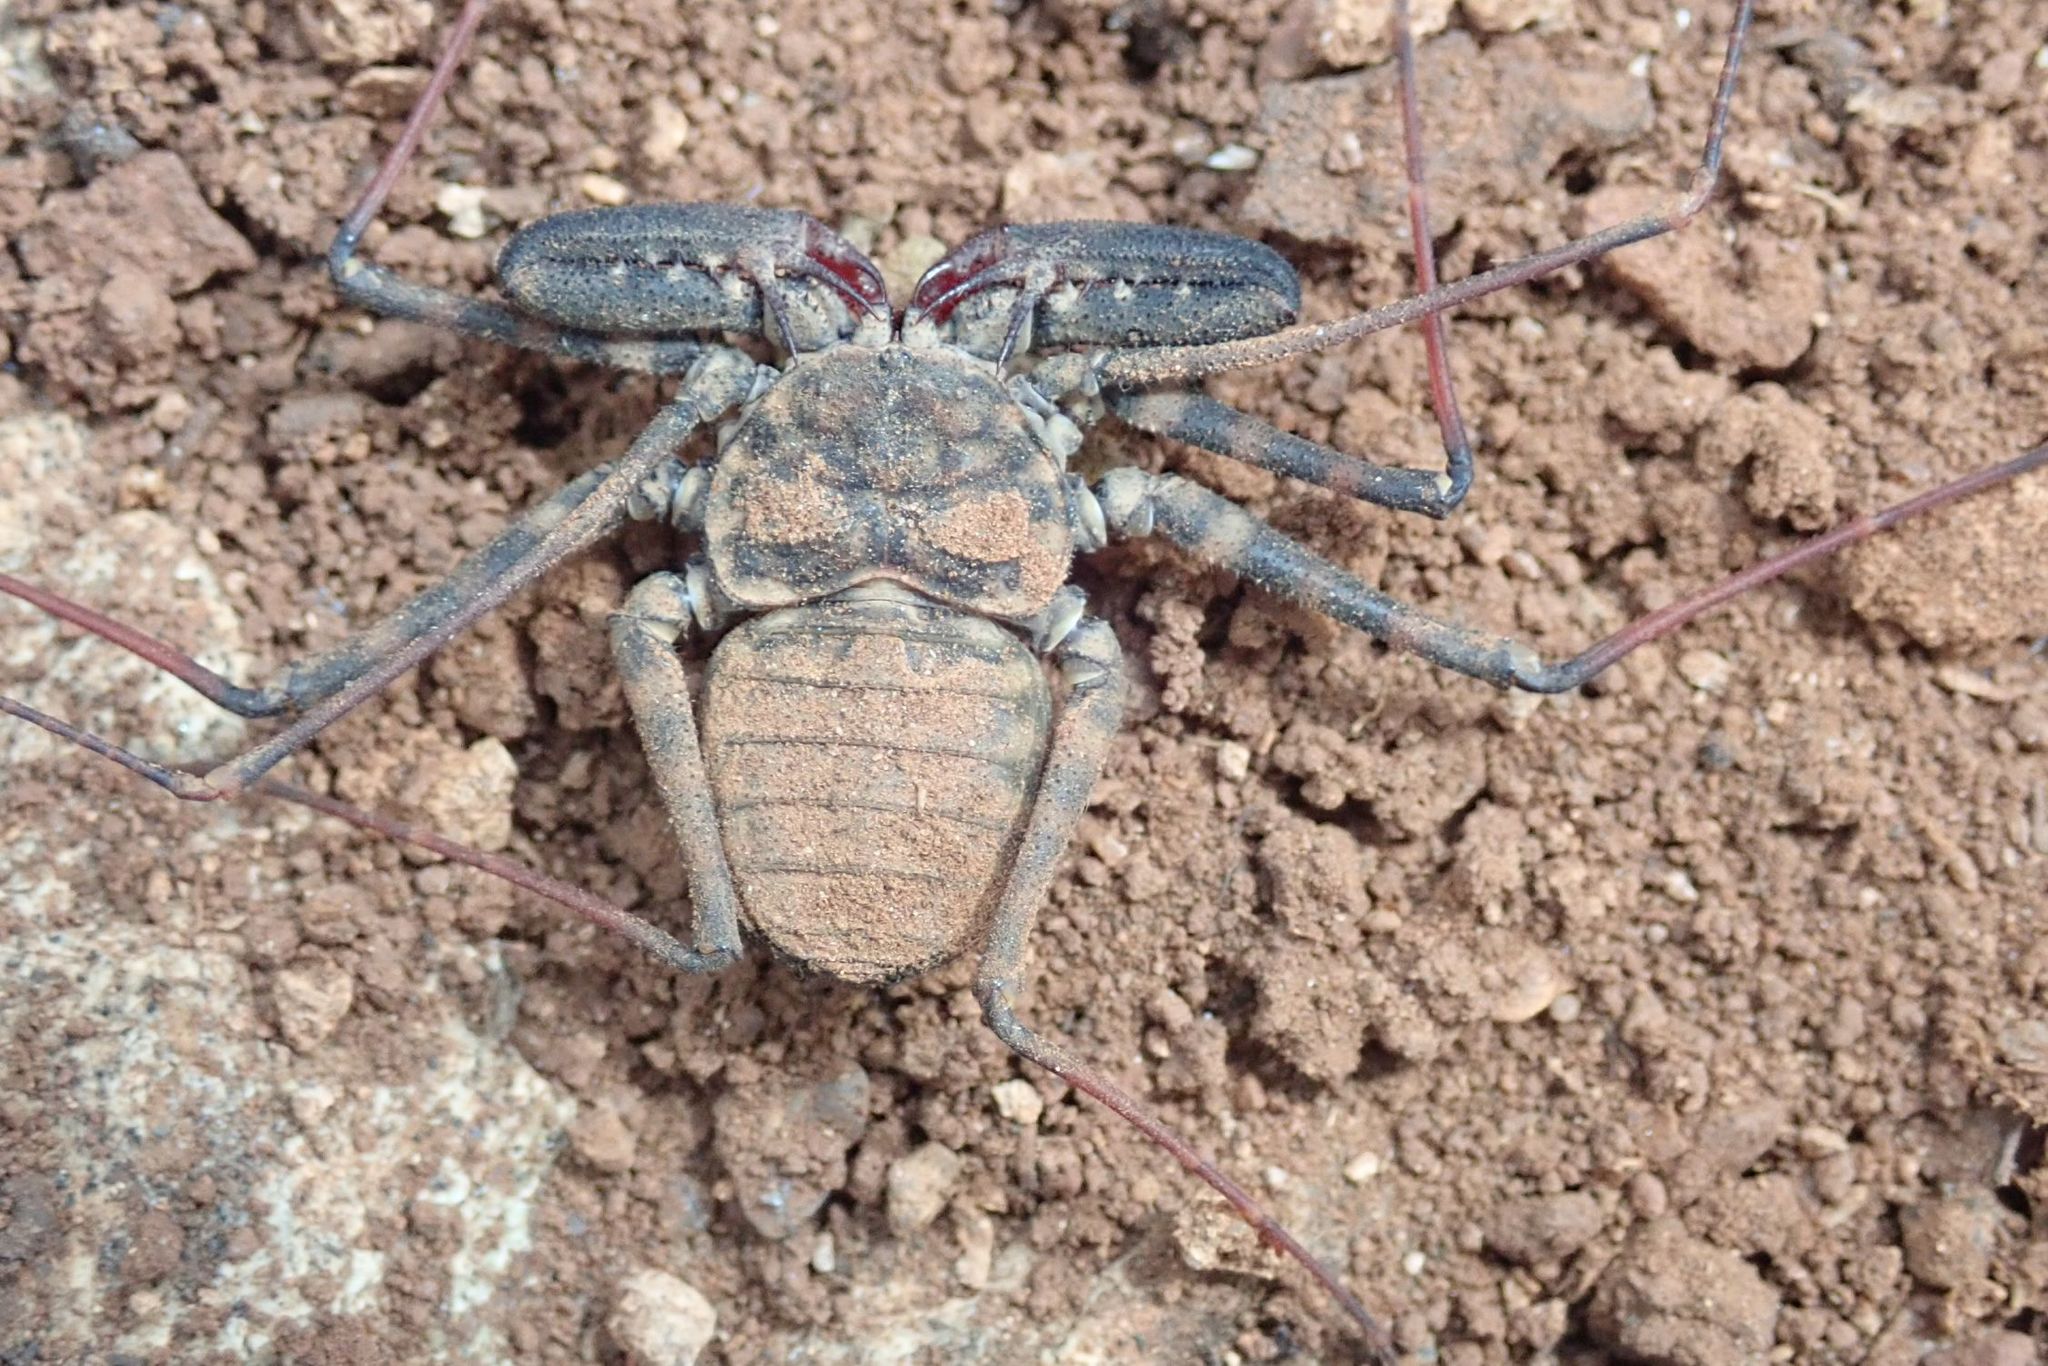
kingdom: Animalia
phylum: Arthropoda
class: Arachnida
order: Amblypygi
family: Phrynichidae
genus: Damon
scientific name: Damon variegatus
